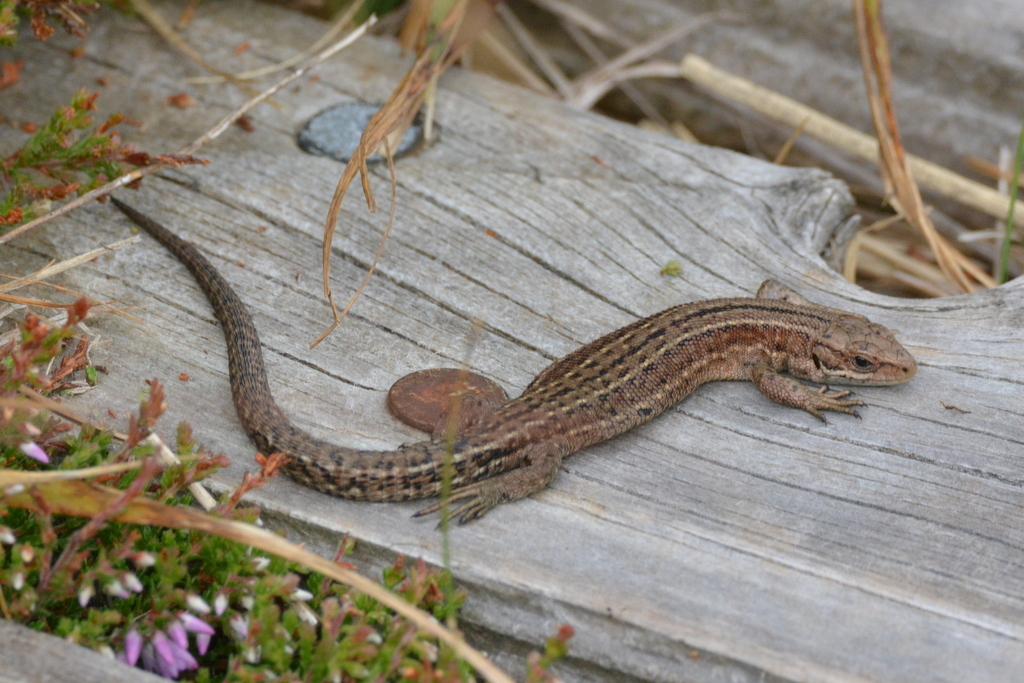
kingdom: Animalia
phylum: Chordata
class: Squamata
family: Lacertidae
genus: Zootoca
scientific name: Zootoca vivipara
